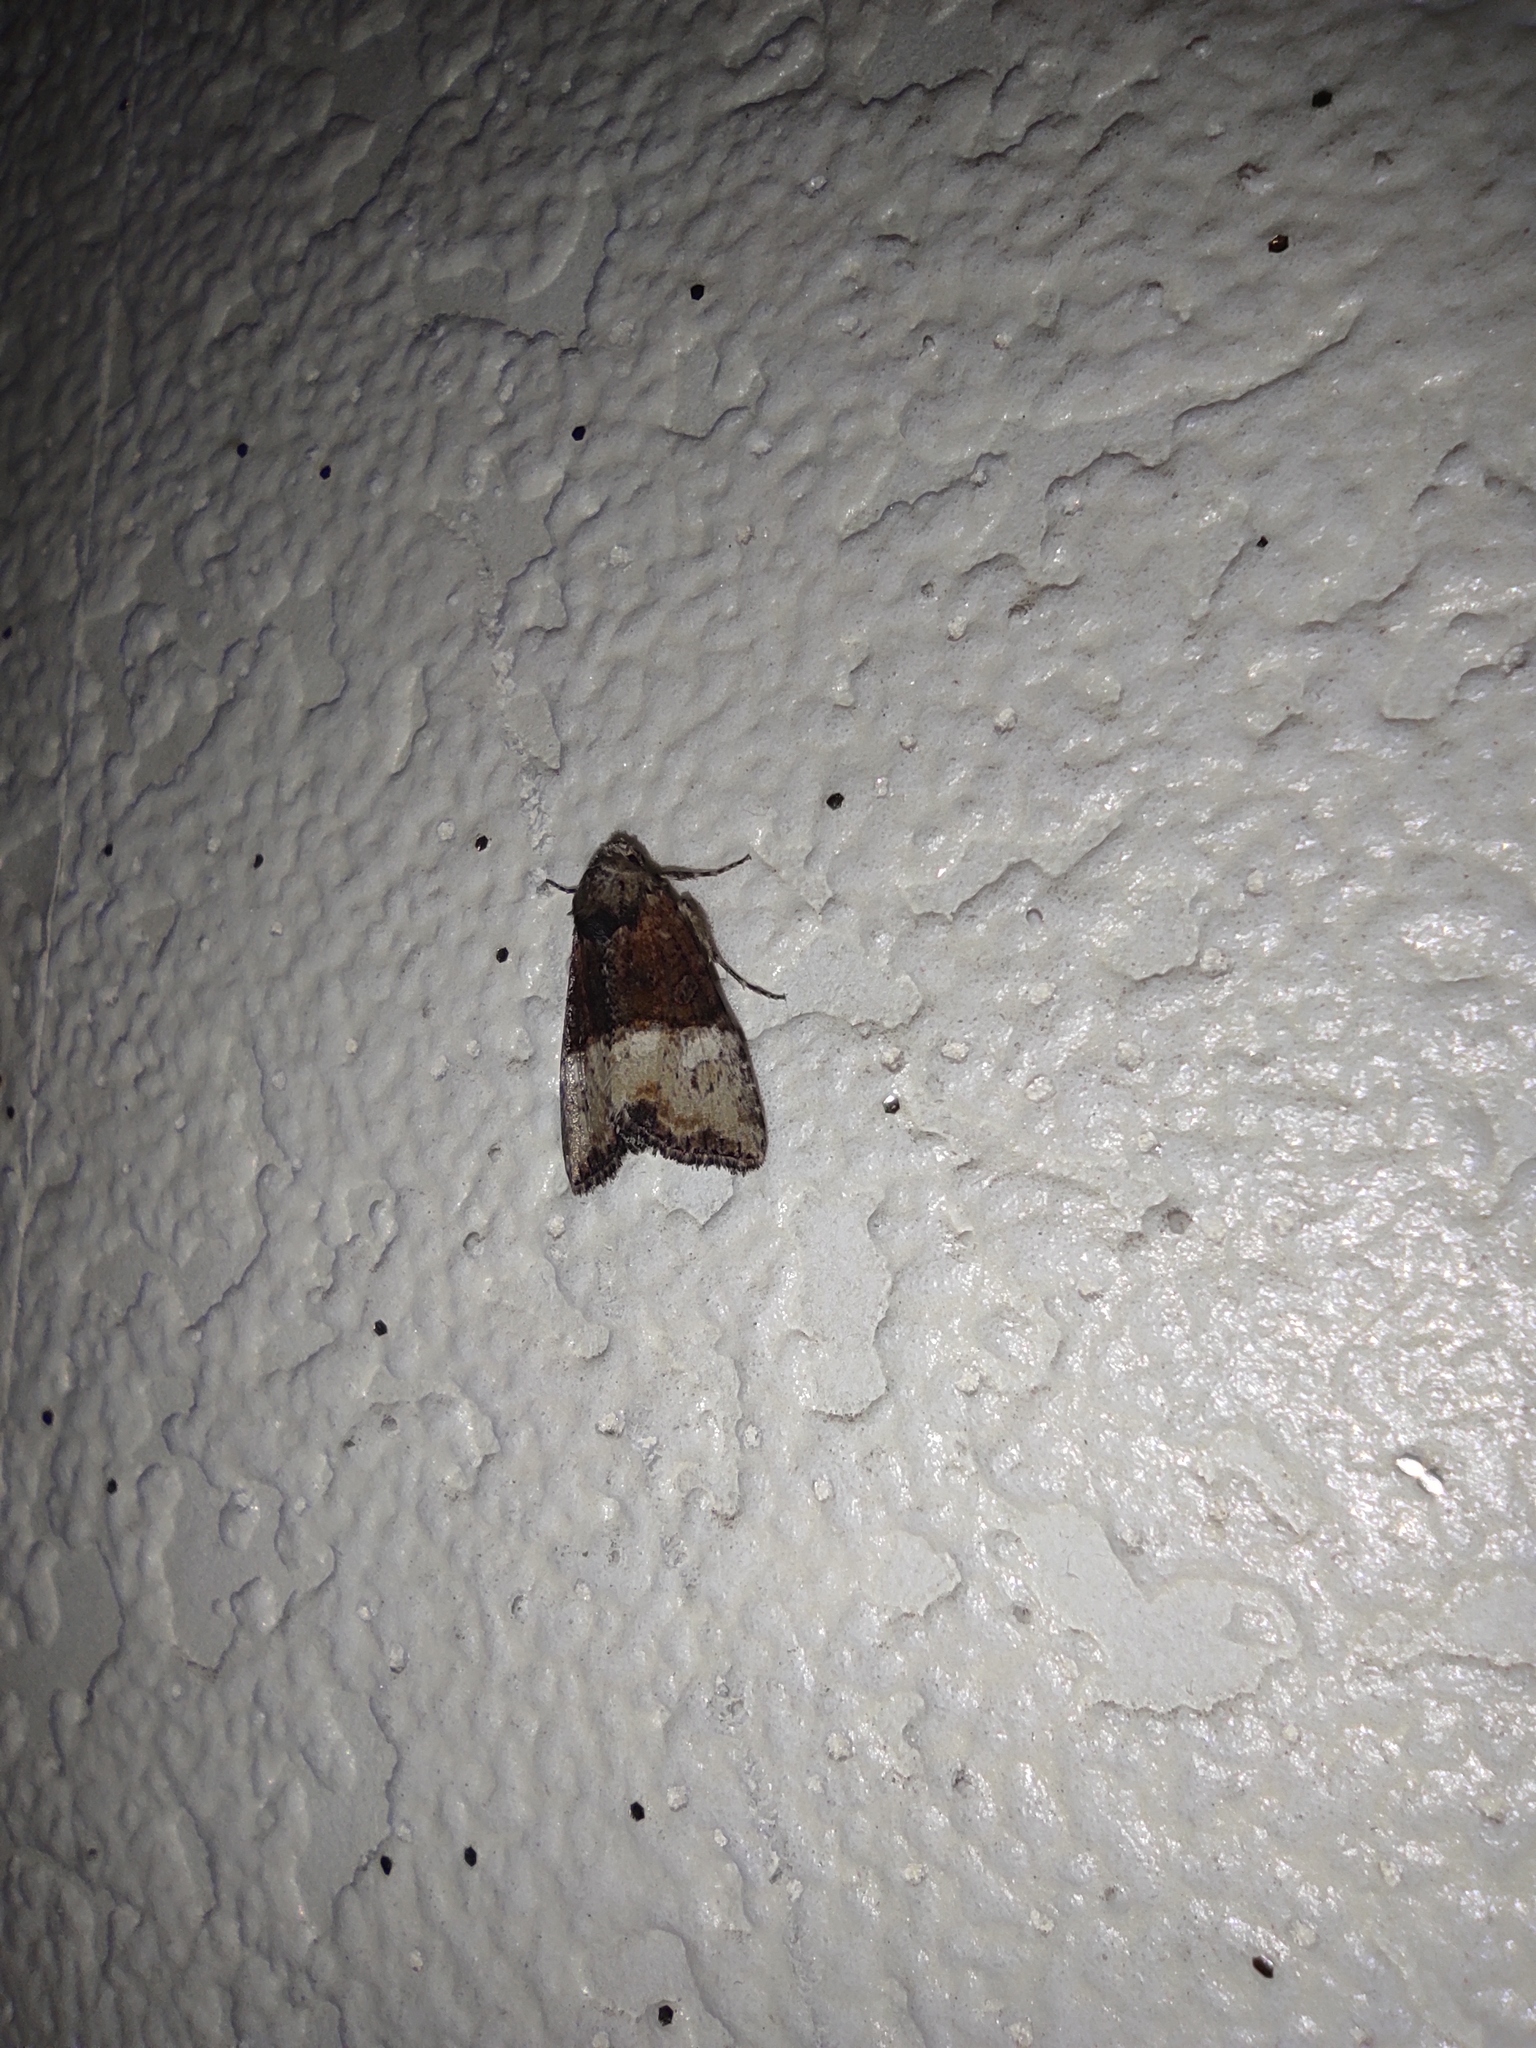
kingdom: Animalia
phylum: Arthropoda
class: Insecta
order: Lepidoptera
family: Noctuidae
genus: Mesoligia
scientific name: Mesoligia furuncula
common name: Cloaked minor
